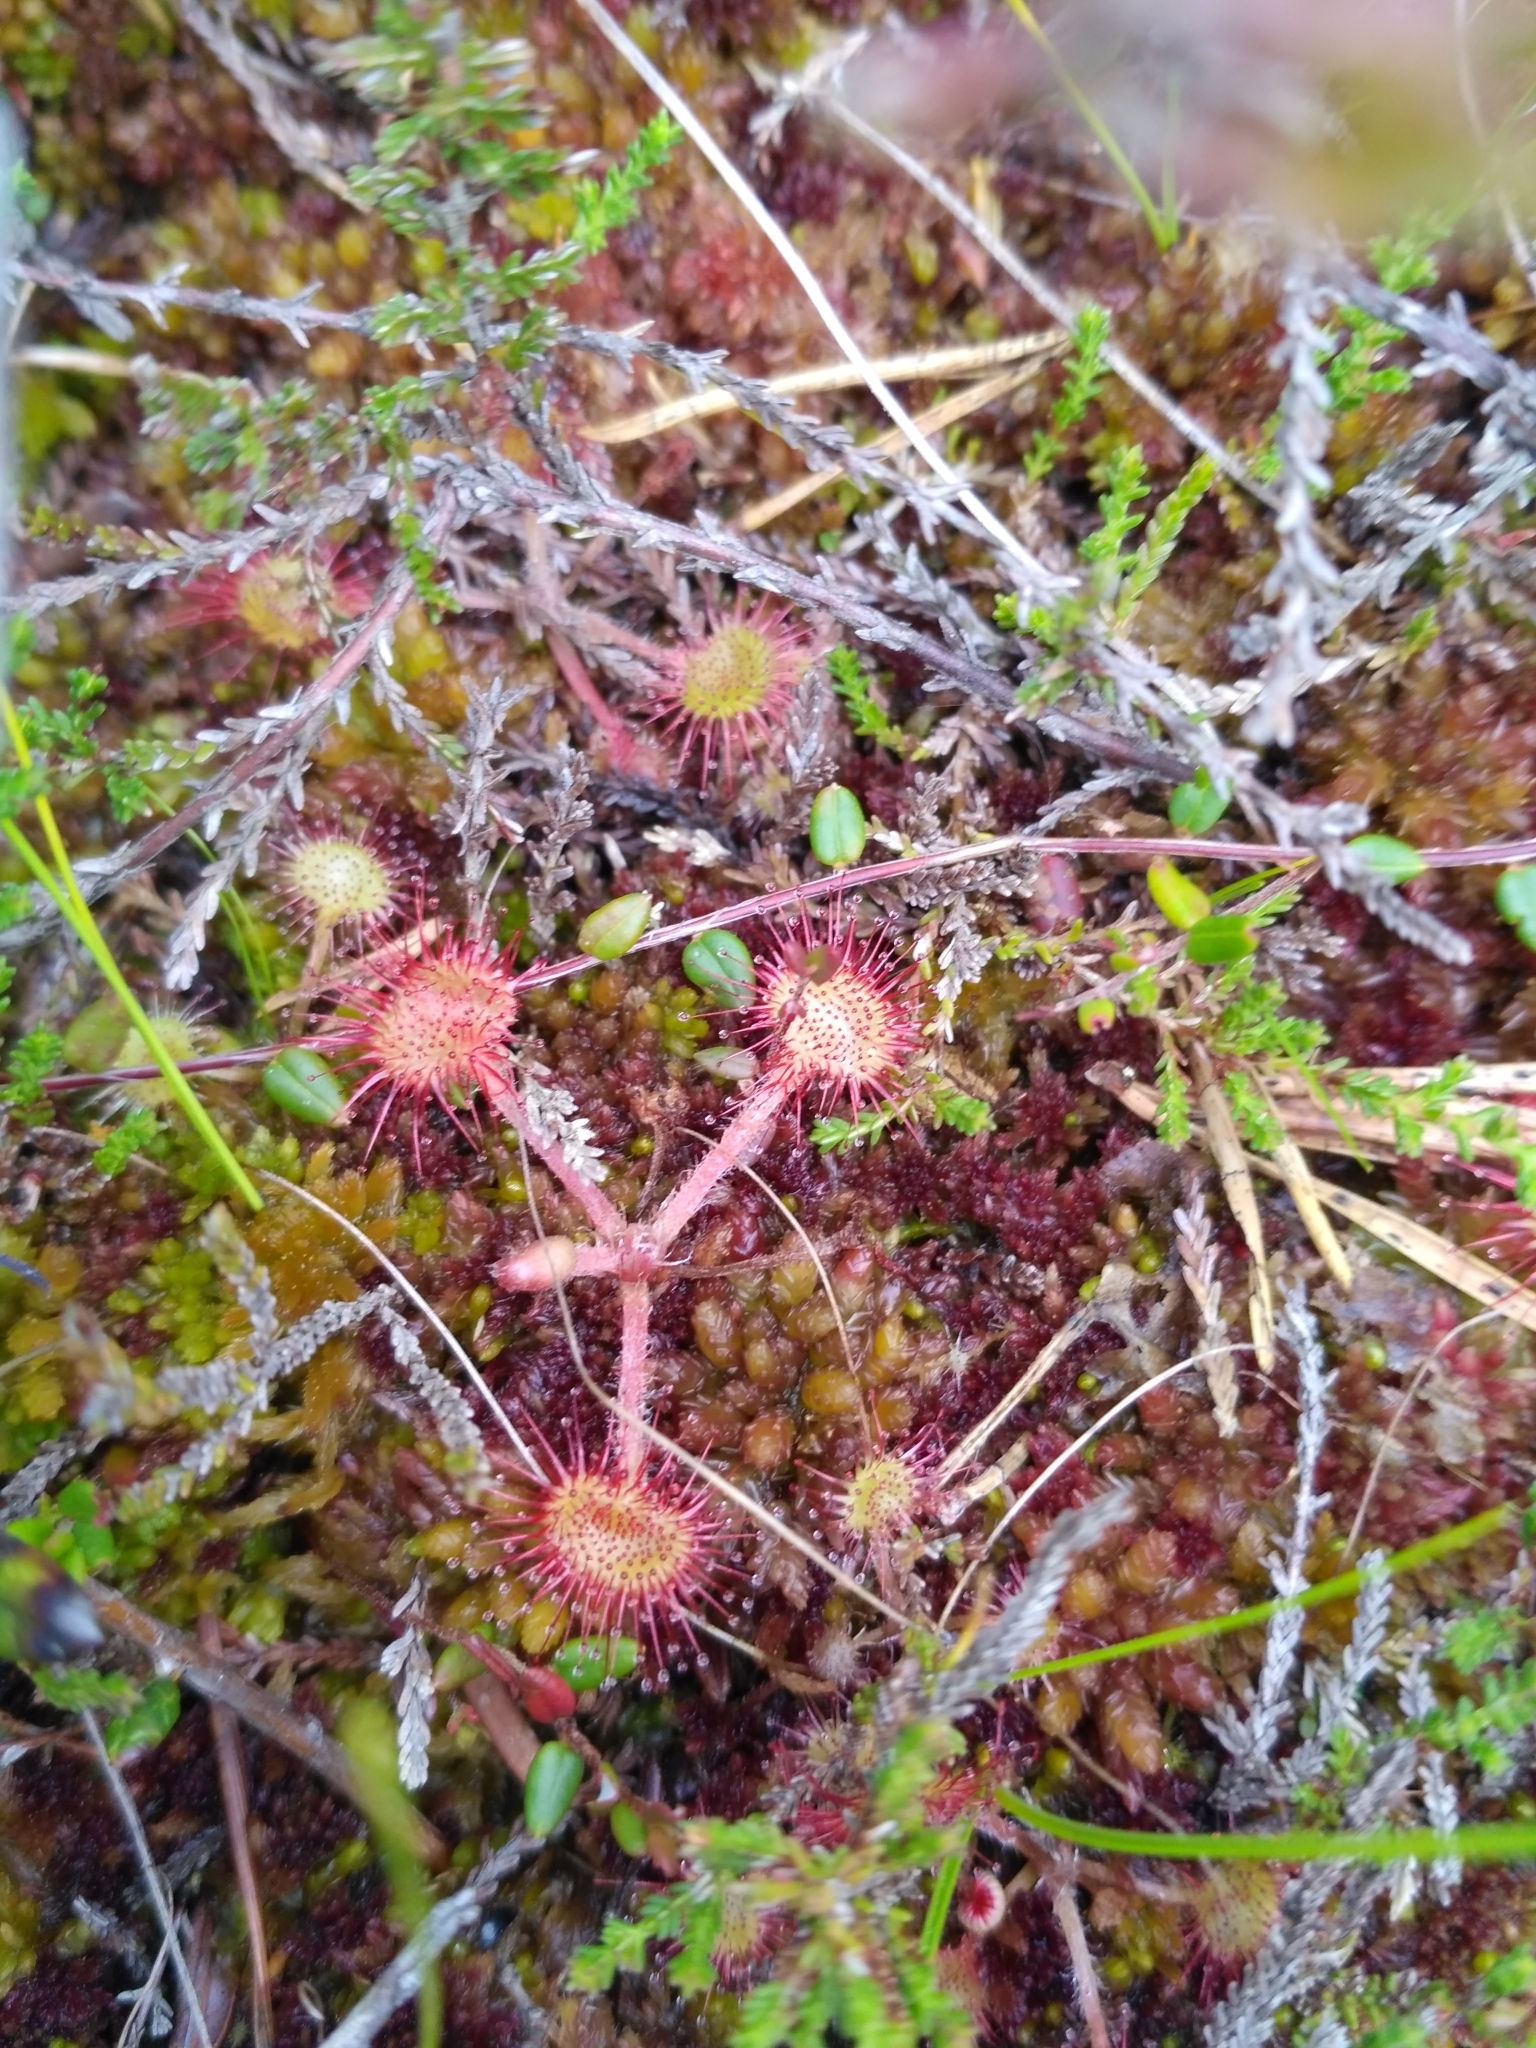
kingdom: Plantae
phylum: Tracheophyta
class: Magnoliopsida
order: Caryophyllales
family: Droseraceae
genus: Drosera
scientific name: Drosera rotundifolia
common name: Round-leaved sundew
